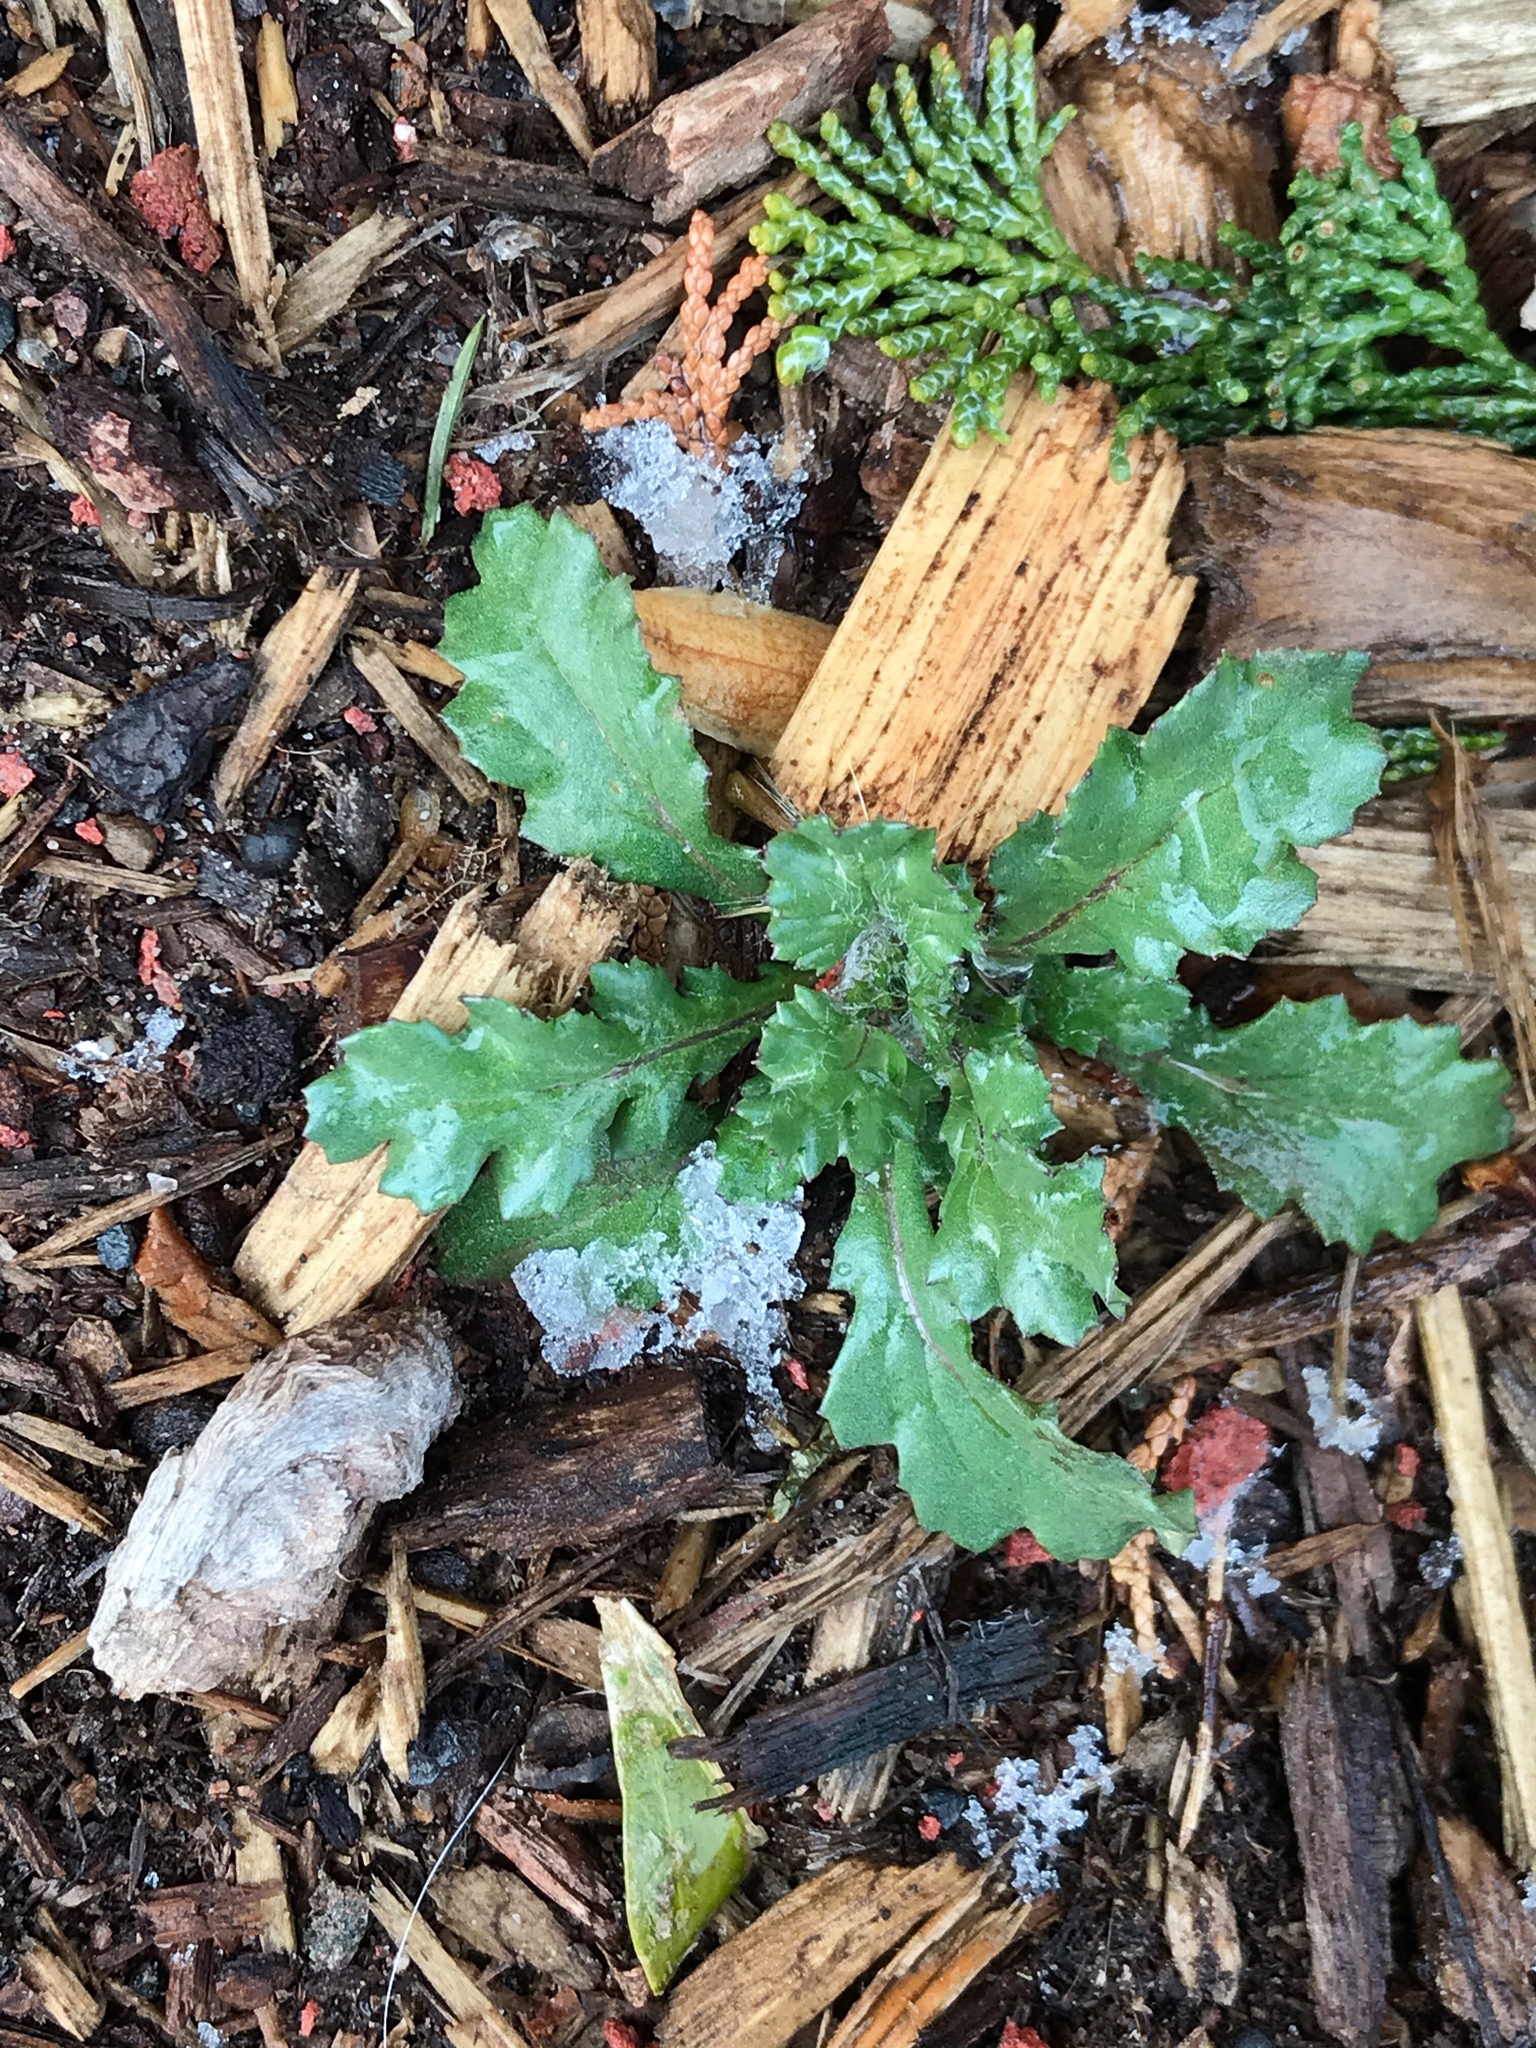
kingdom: Plantae
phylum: Tracheophyta
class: Magnoliopsida
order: Asterales
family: Asteraceae
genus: Senecio
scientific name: Senecio vulgaris
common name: Old-man-in-the-spring
